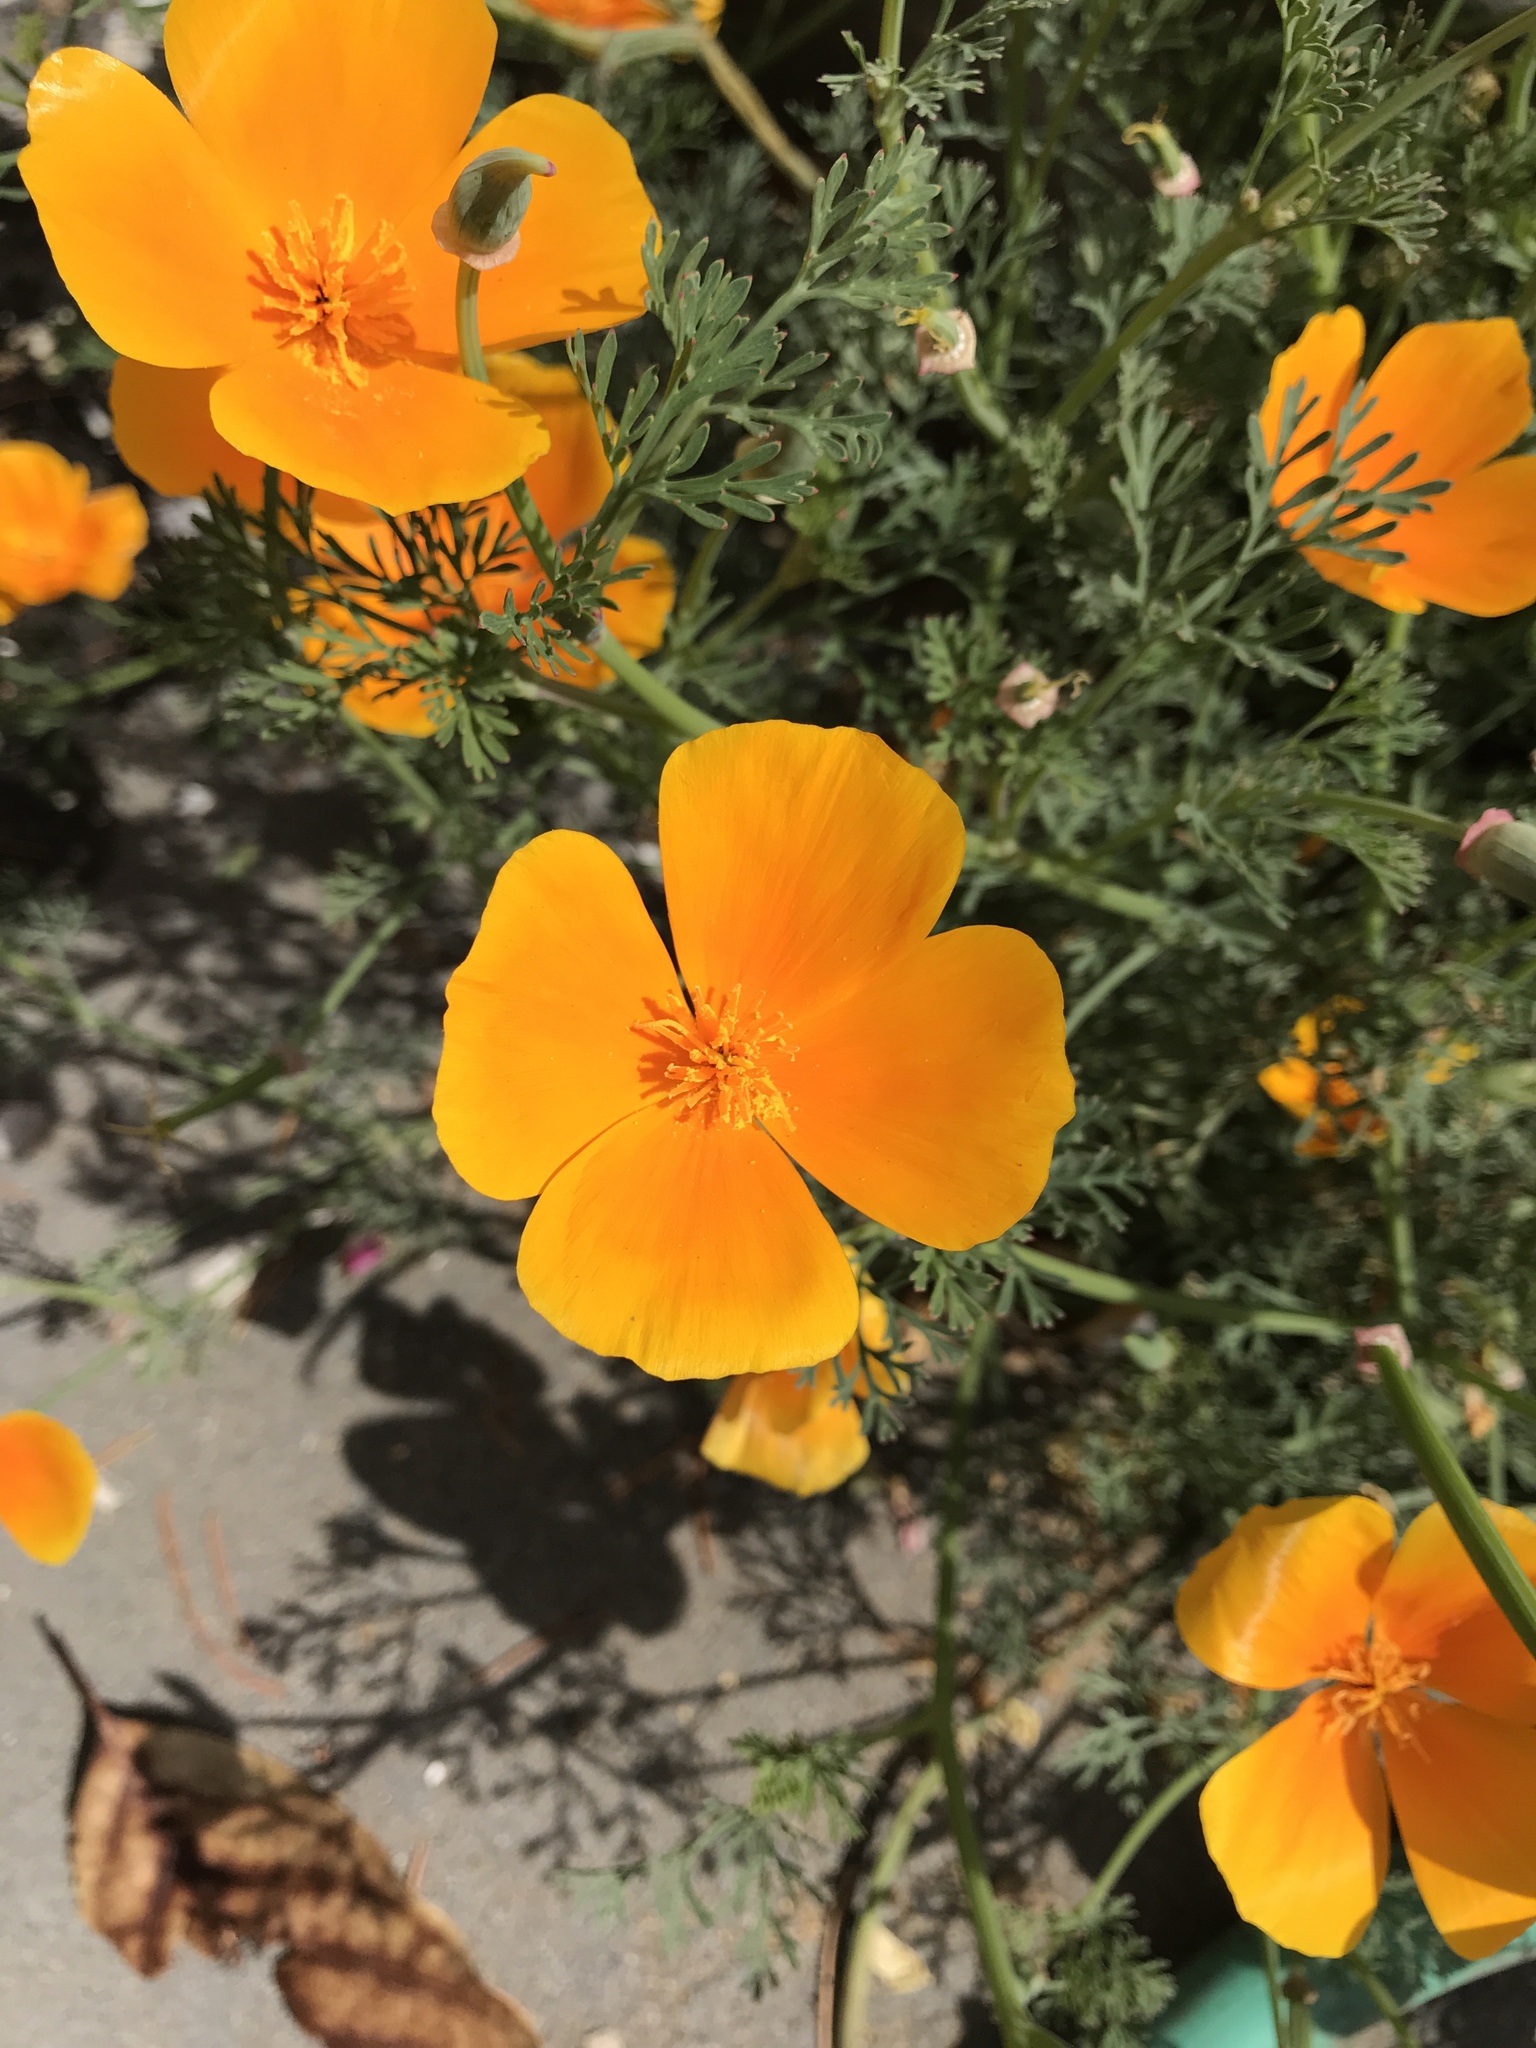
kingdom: Plantae
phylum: Tracheophyta
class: Magnoliopsida
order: Ranunculales
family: Papaveraceae
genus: Eschscholzia
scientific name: Eschscholzia californica
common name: California poppy
